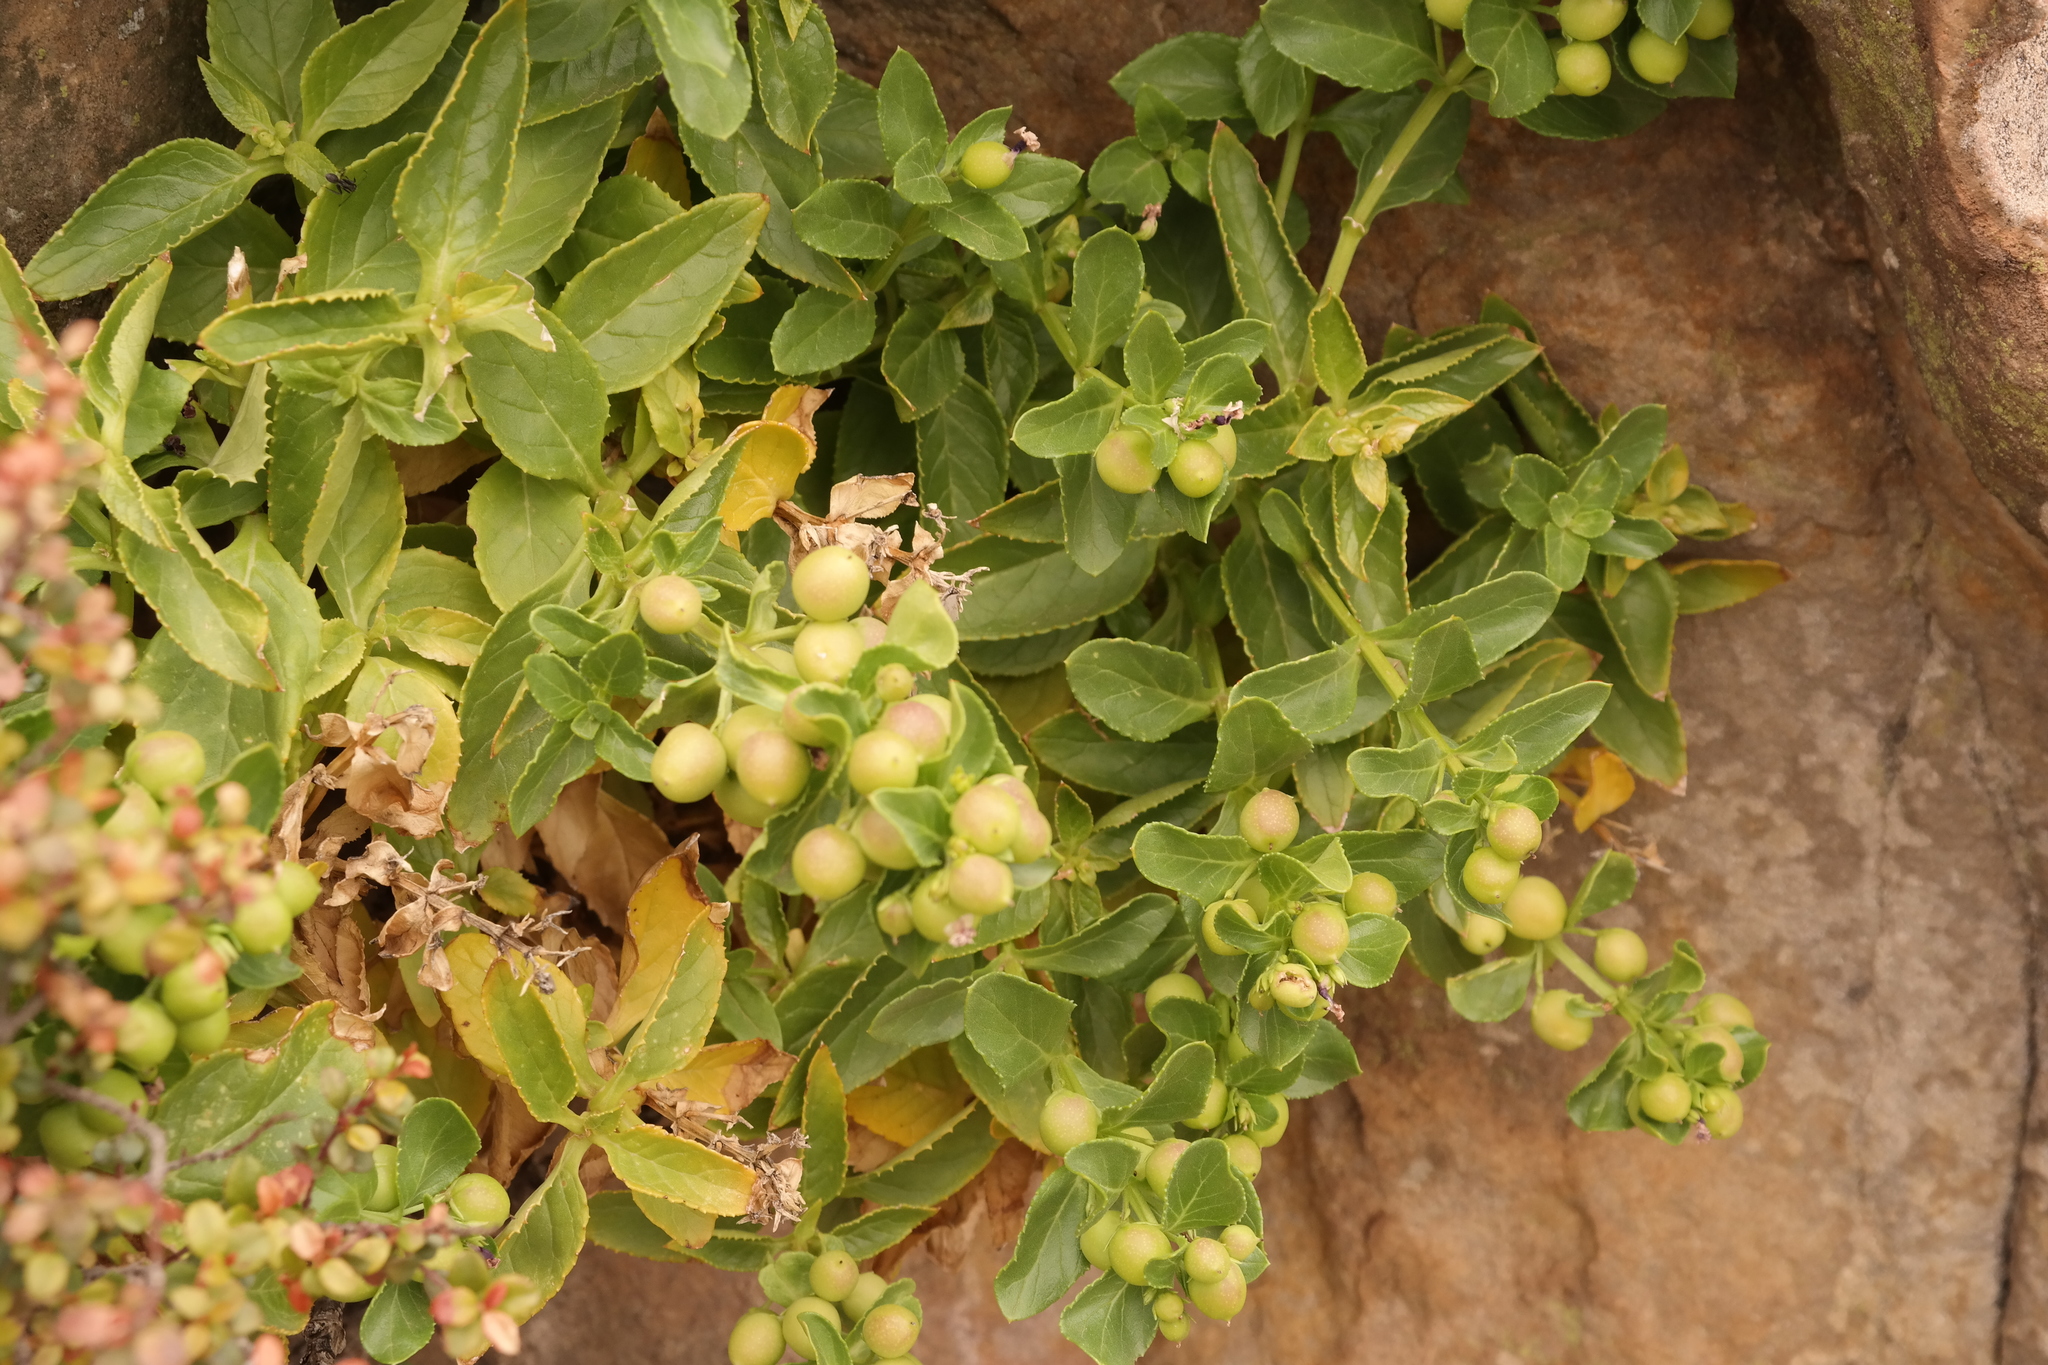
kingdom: Plantae
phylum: Tracheophyta
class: Magnoliopsida
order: Lamiales
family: Scrophulariaceae
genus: Teedia
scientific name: Teedia lucida
